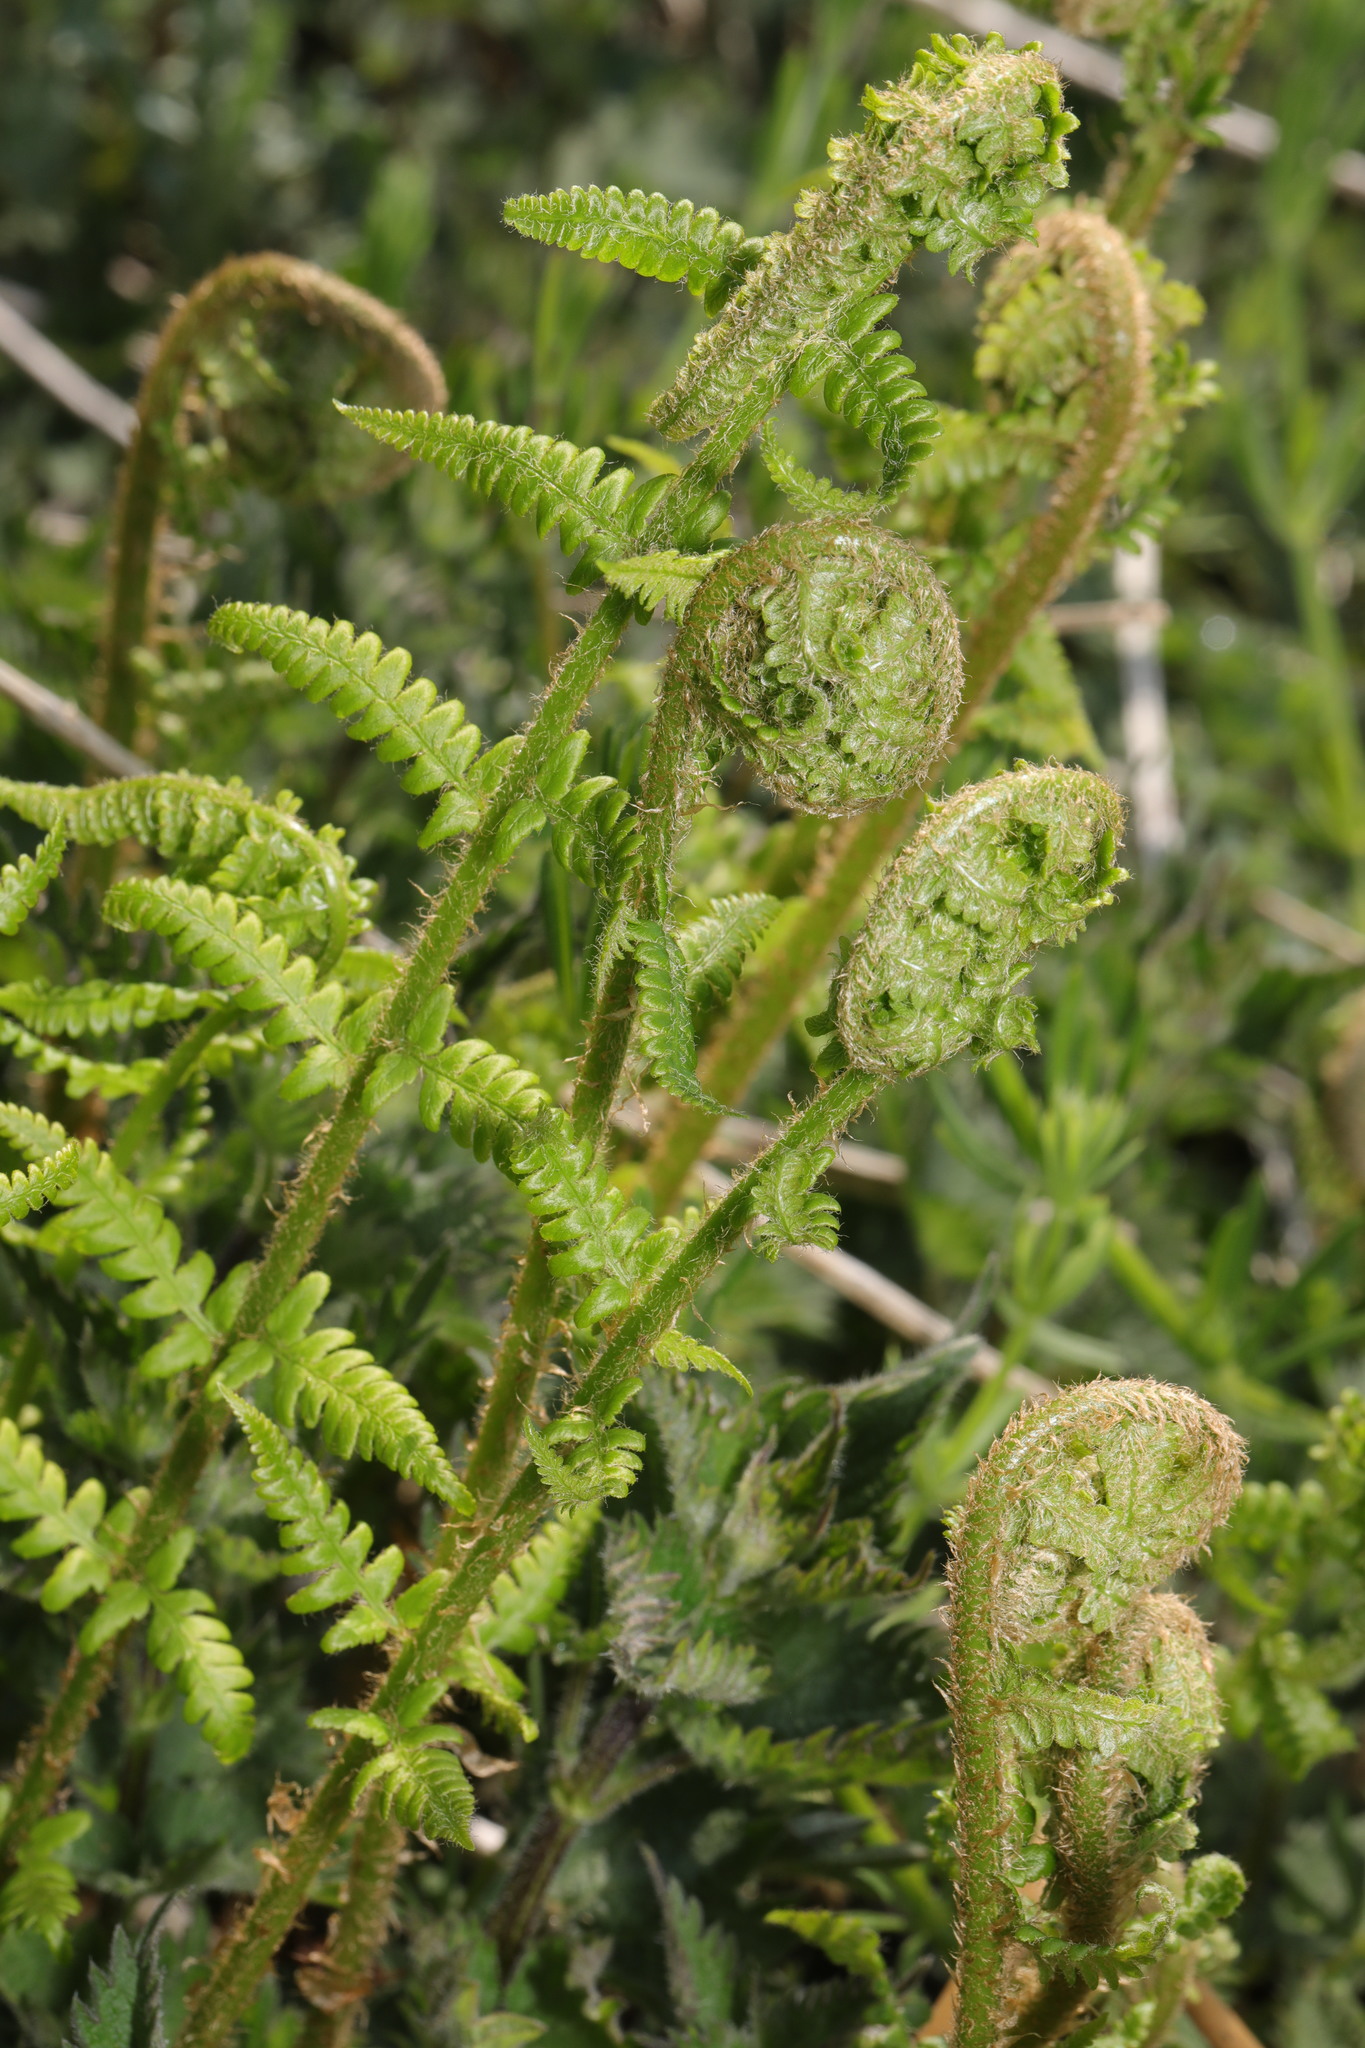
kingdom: Plantae
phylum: Tracheophyta
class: Polypodiopsida
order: Polypodiales
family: Dryopteridaceae
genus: Dryopteris
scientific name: Dryopteris filix-mas
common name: Male fern
